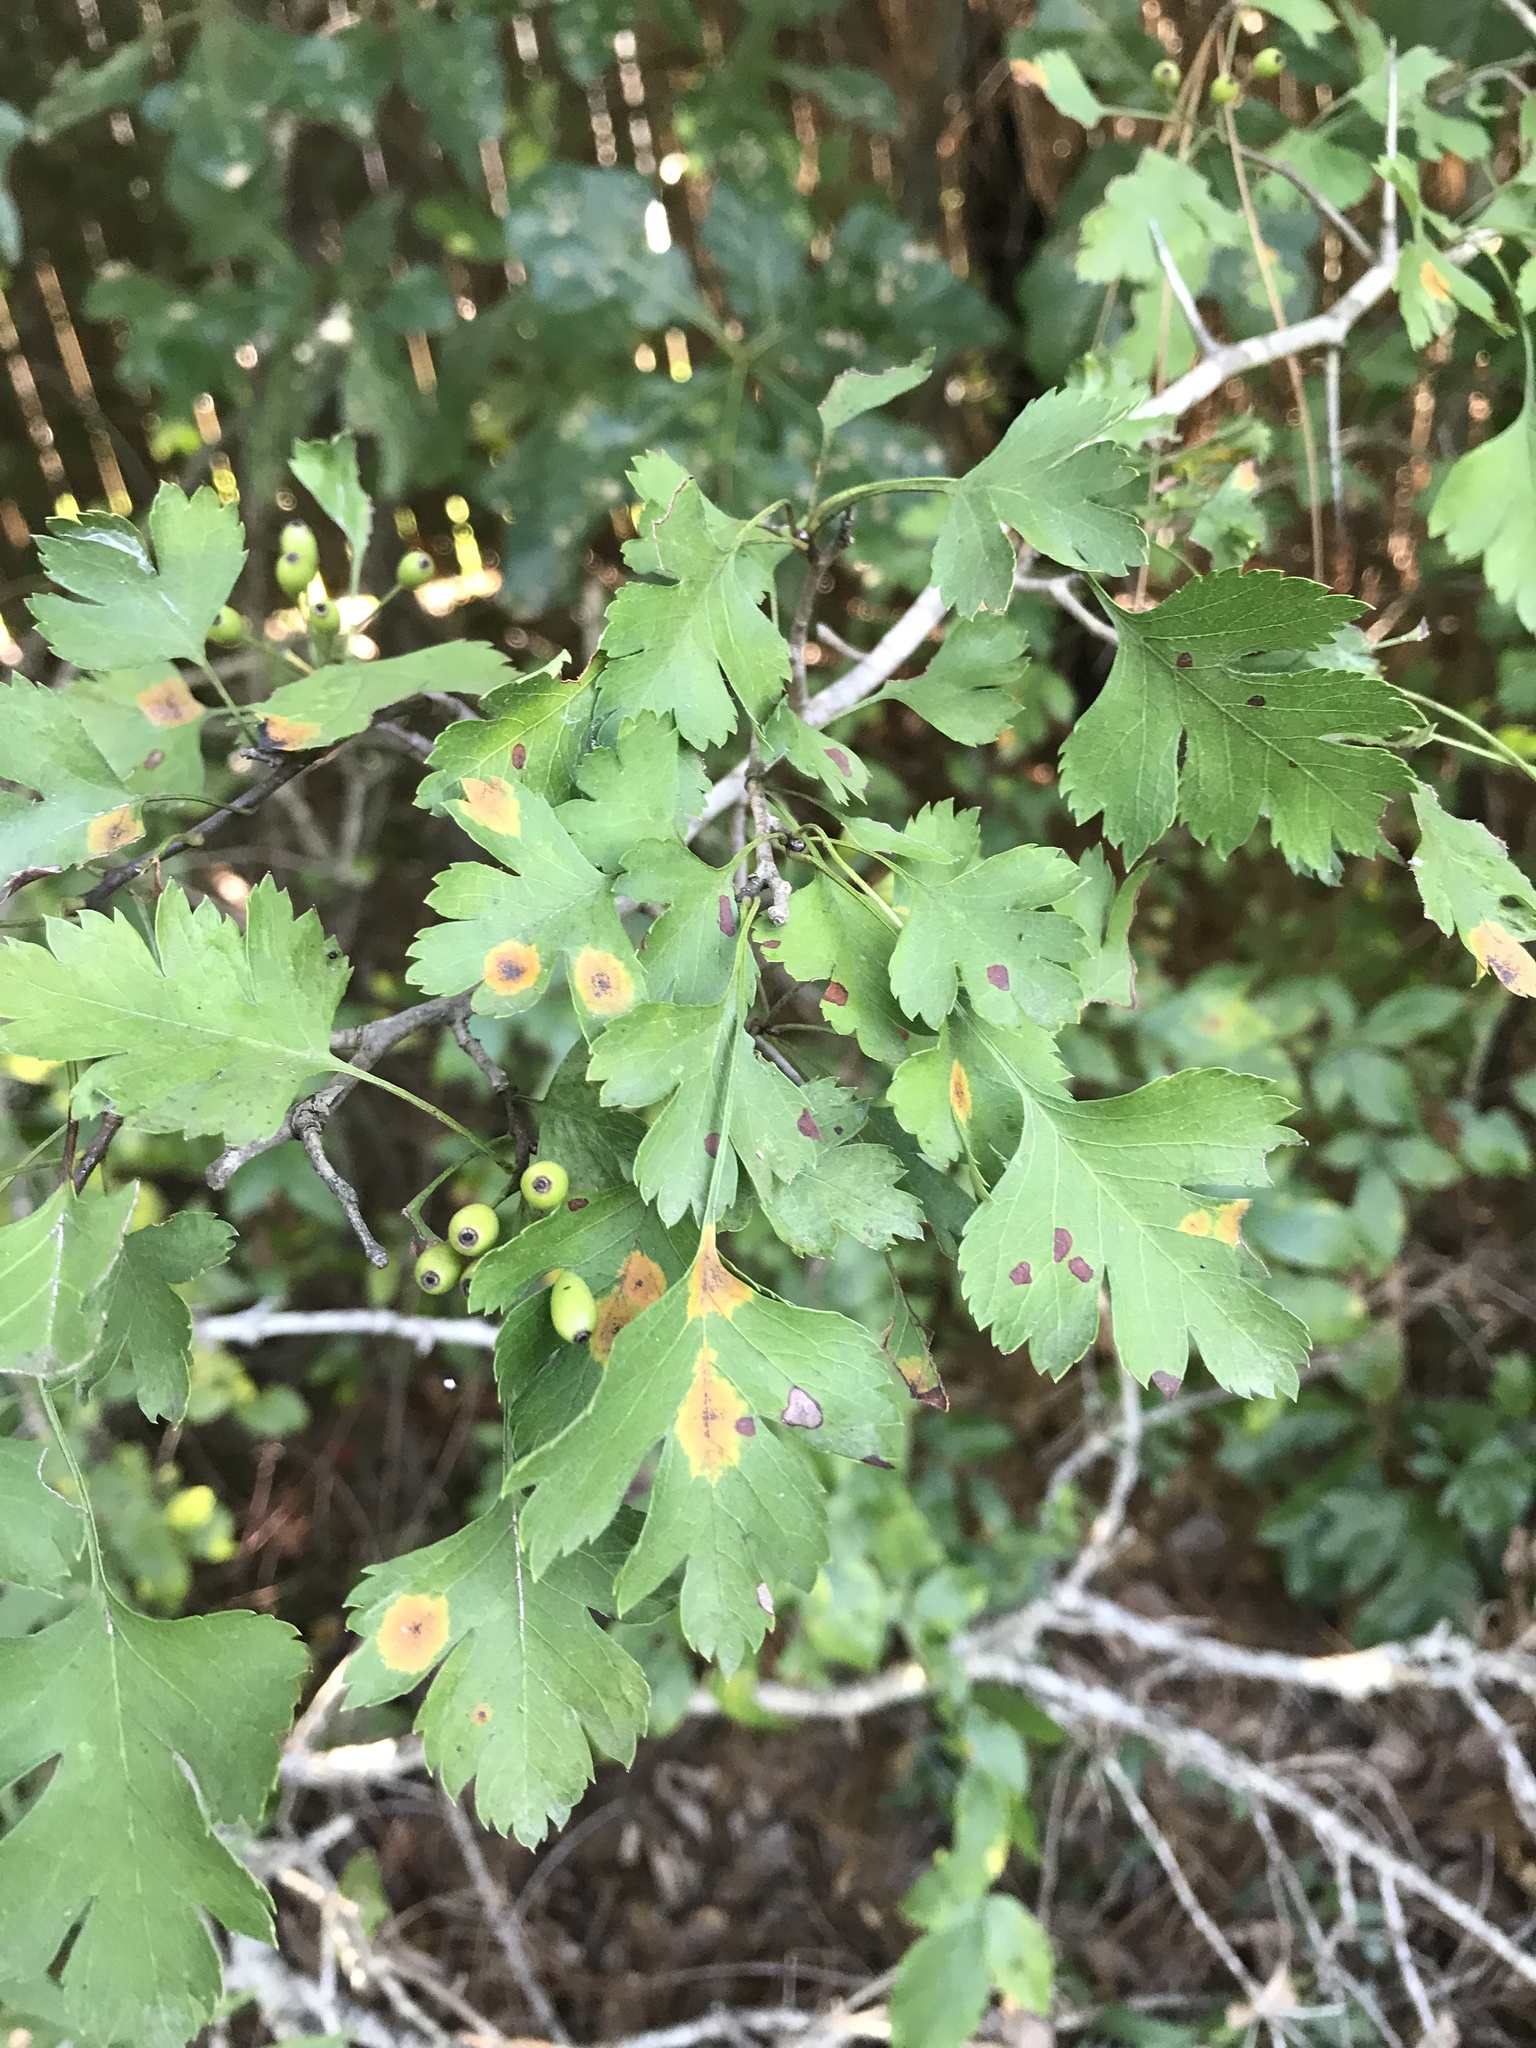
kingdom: Plantae
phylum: Tracheophyta
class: Magnoliopsida
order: Rosales
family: Rosaceae
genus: Crataegus
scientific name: Crataegus marshallii
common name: Parsley-hawthorn
